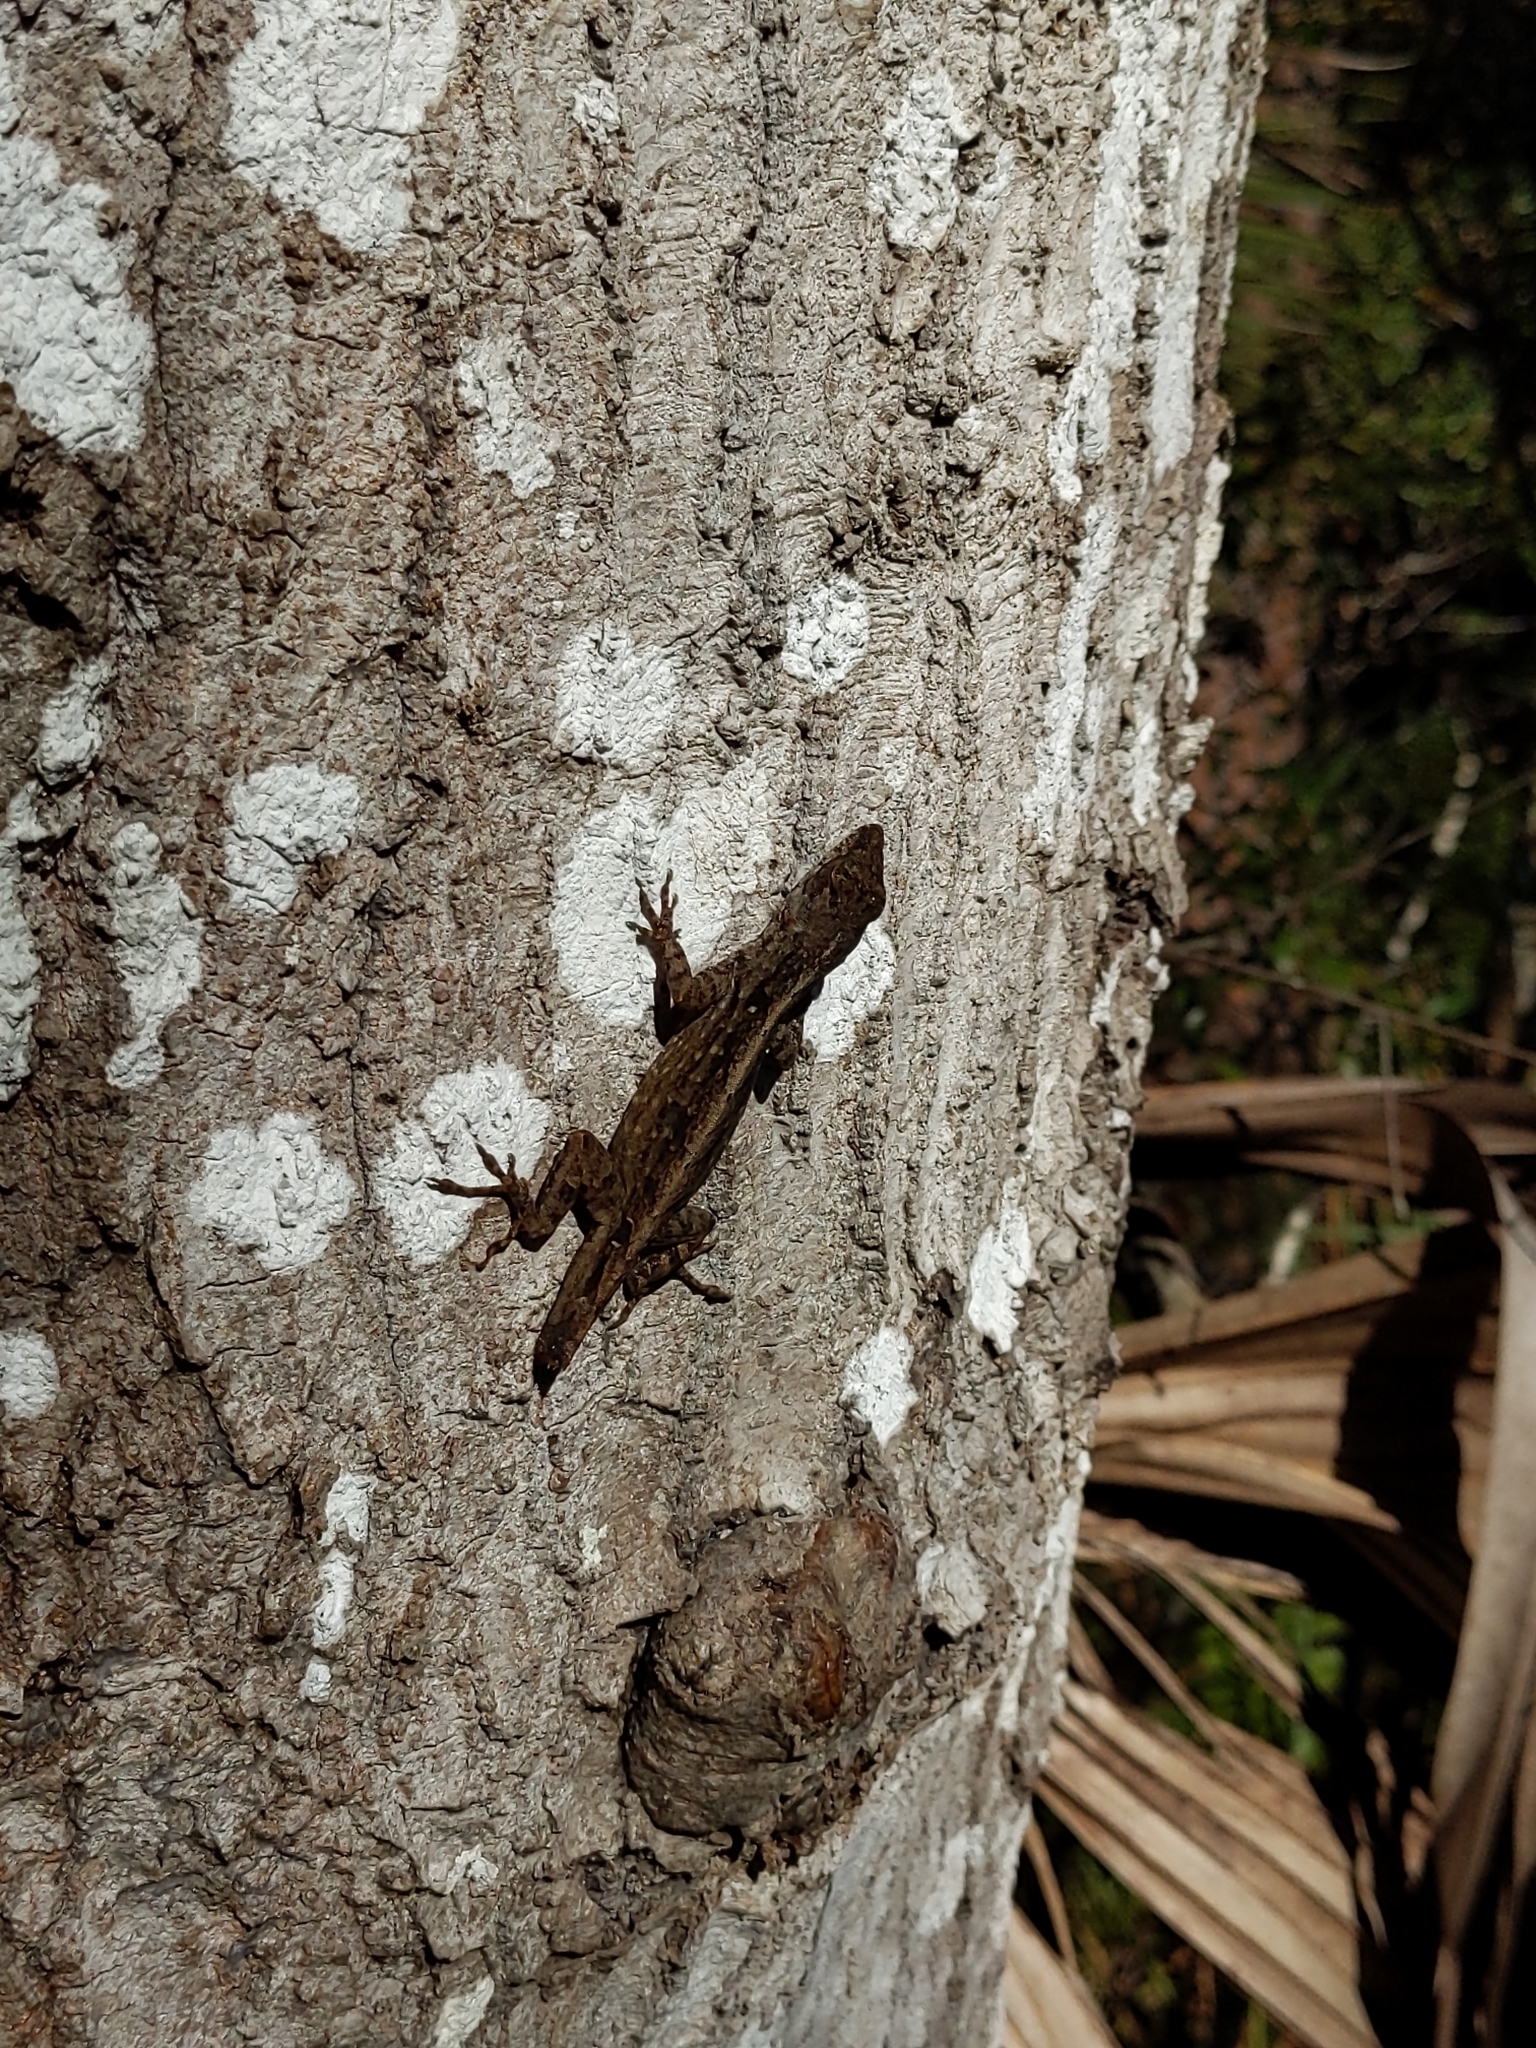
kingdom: Animalia
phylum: Chordata
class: Squamata
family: Dactyloidae
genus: Anolis
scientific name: Anolis sagrei
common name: Brown anole
